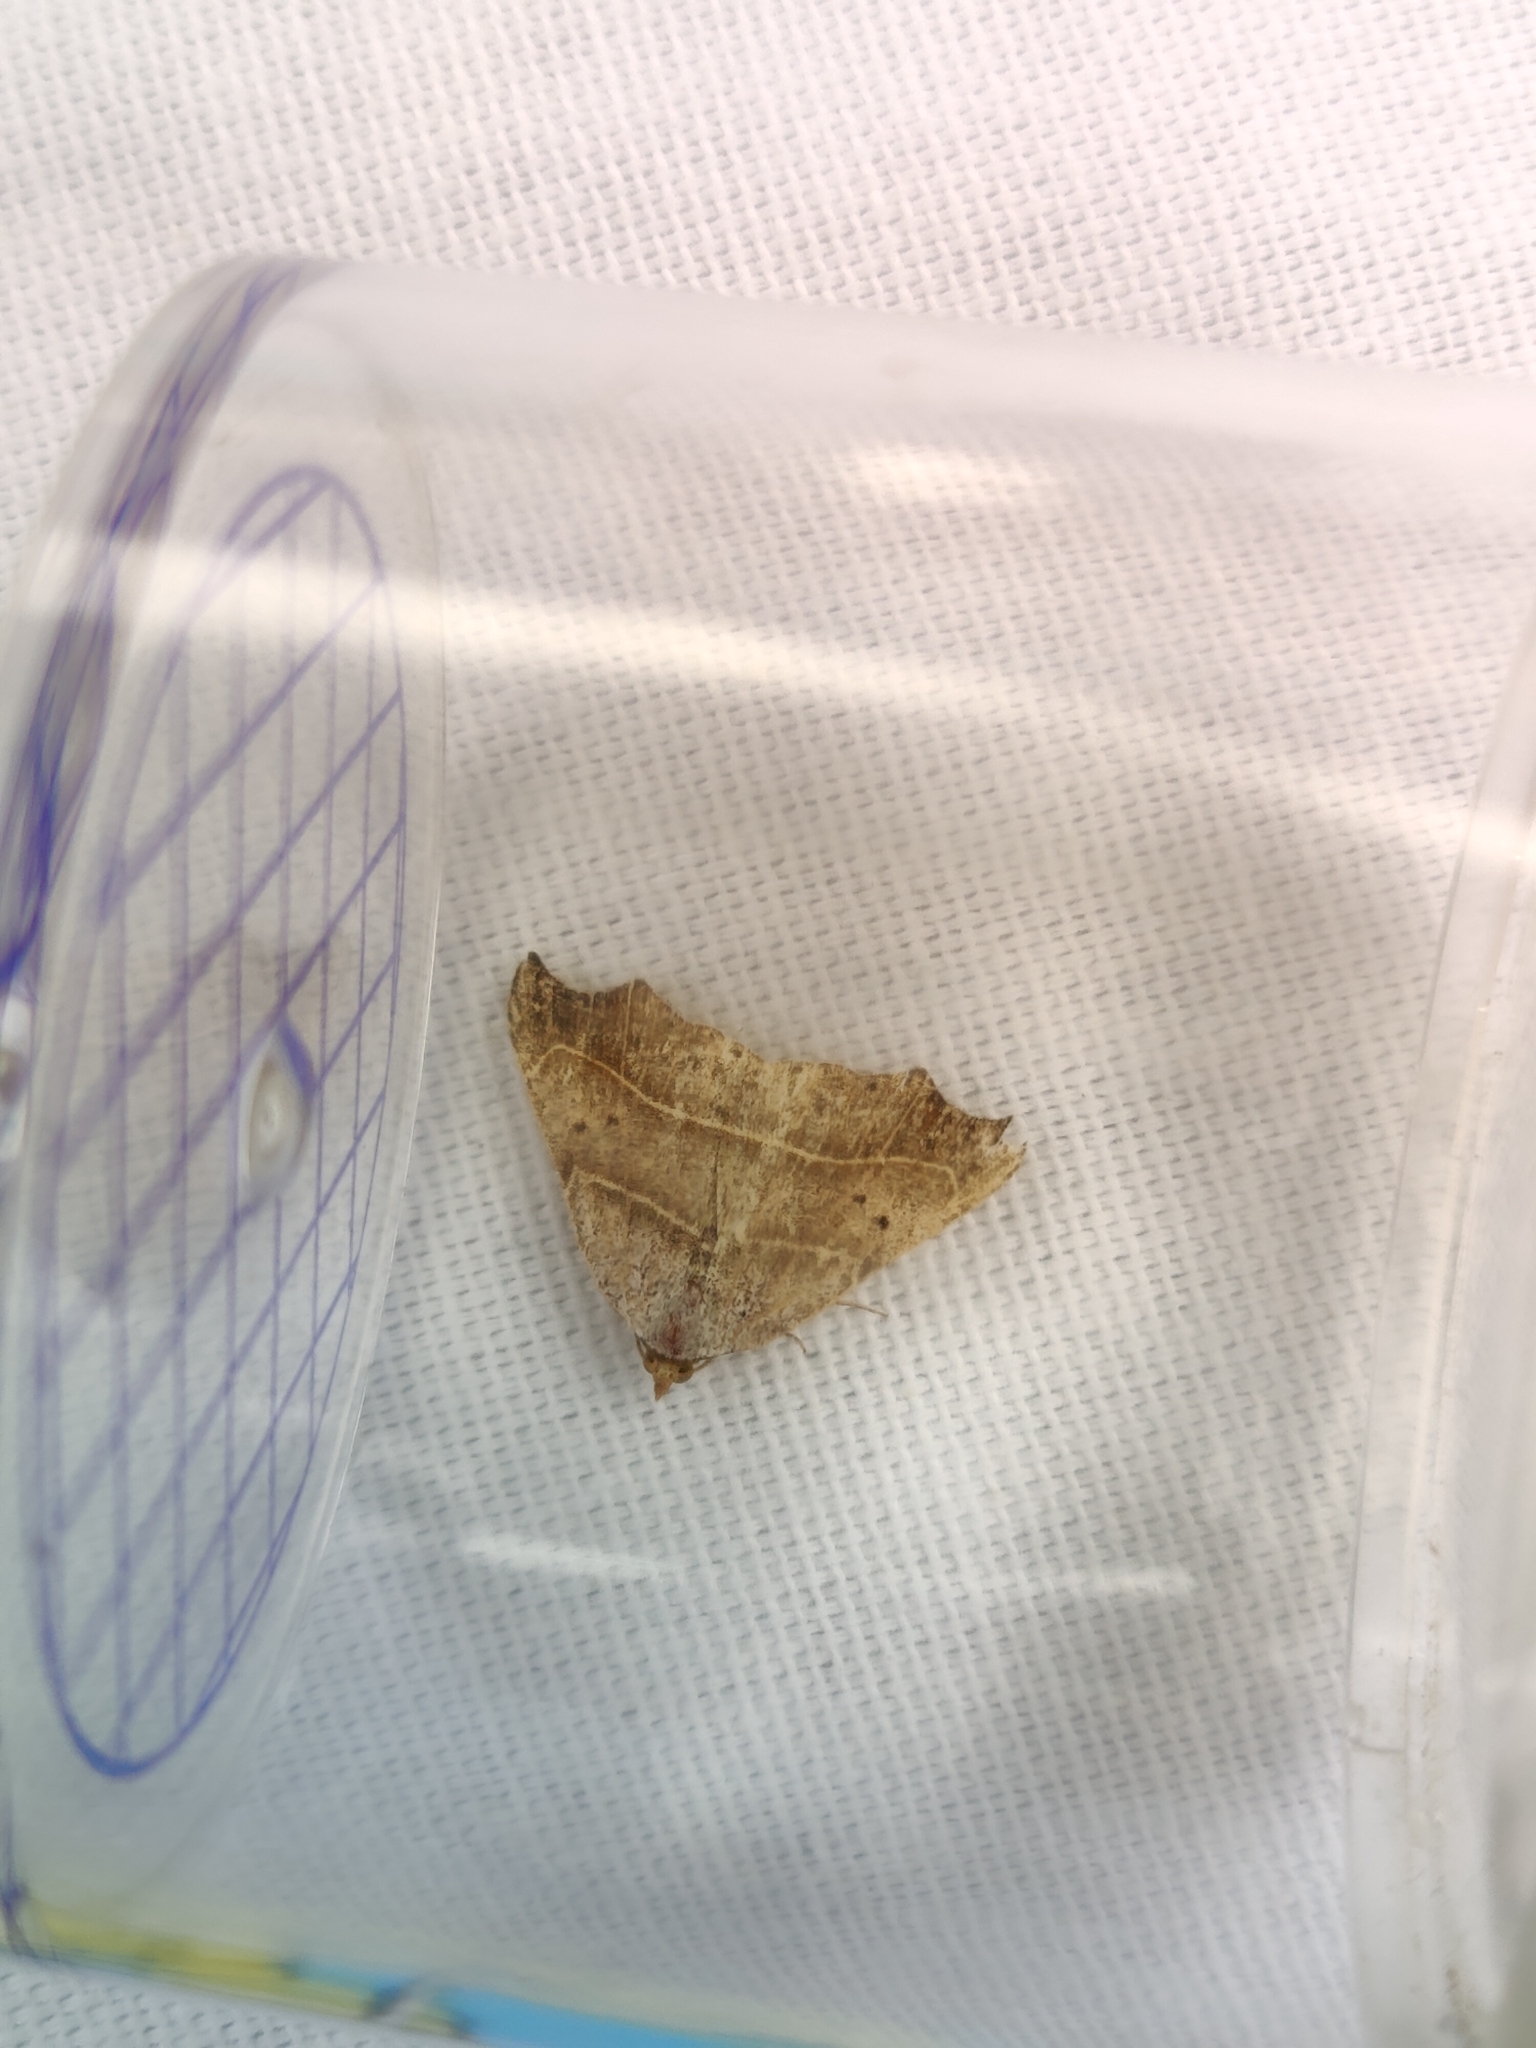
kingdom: Animalia
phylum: Arthropoda
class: Insecta
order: Lepidoptera
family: Erebidae
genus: Laspeyria
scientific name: Laspeyria flexula
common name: Beautiful hook-tip
